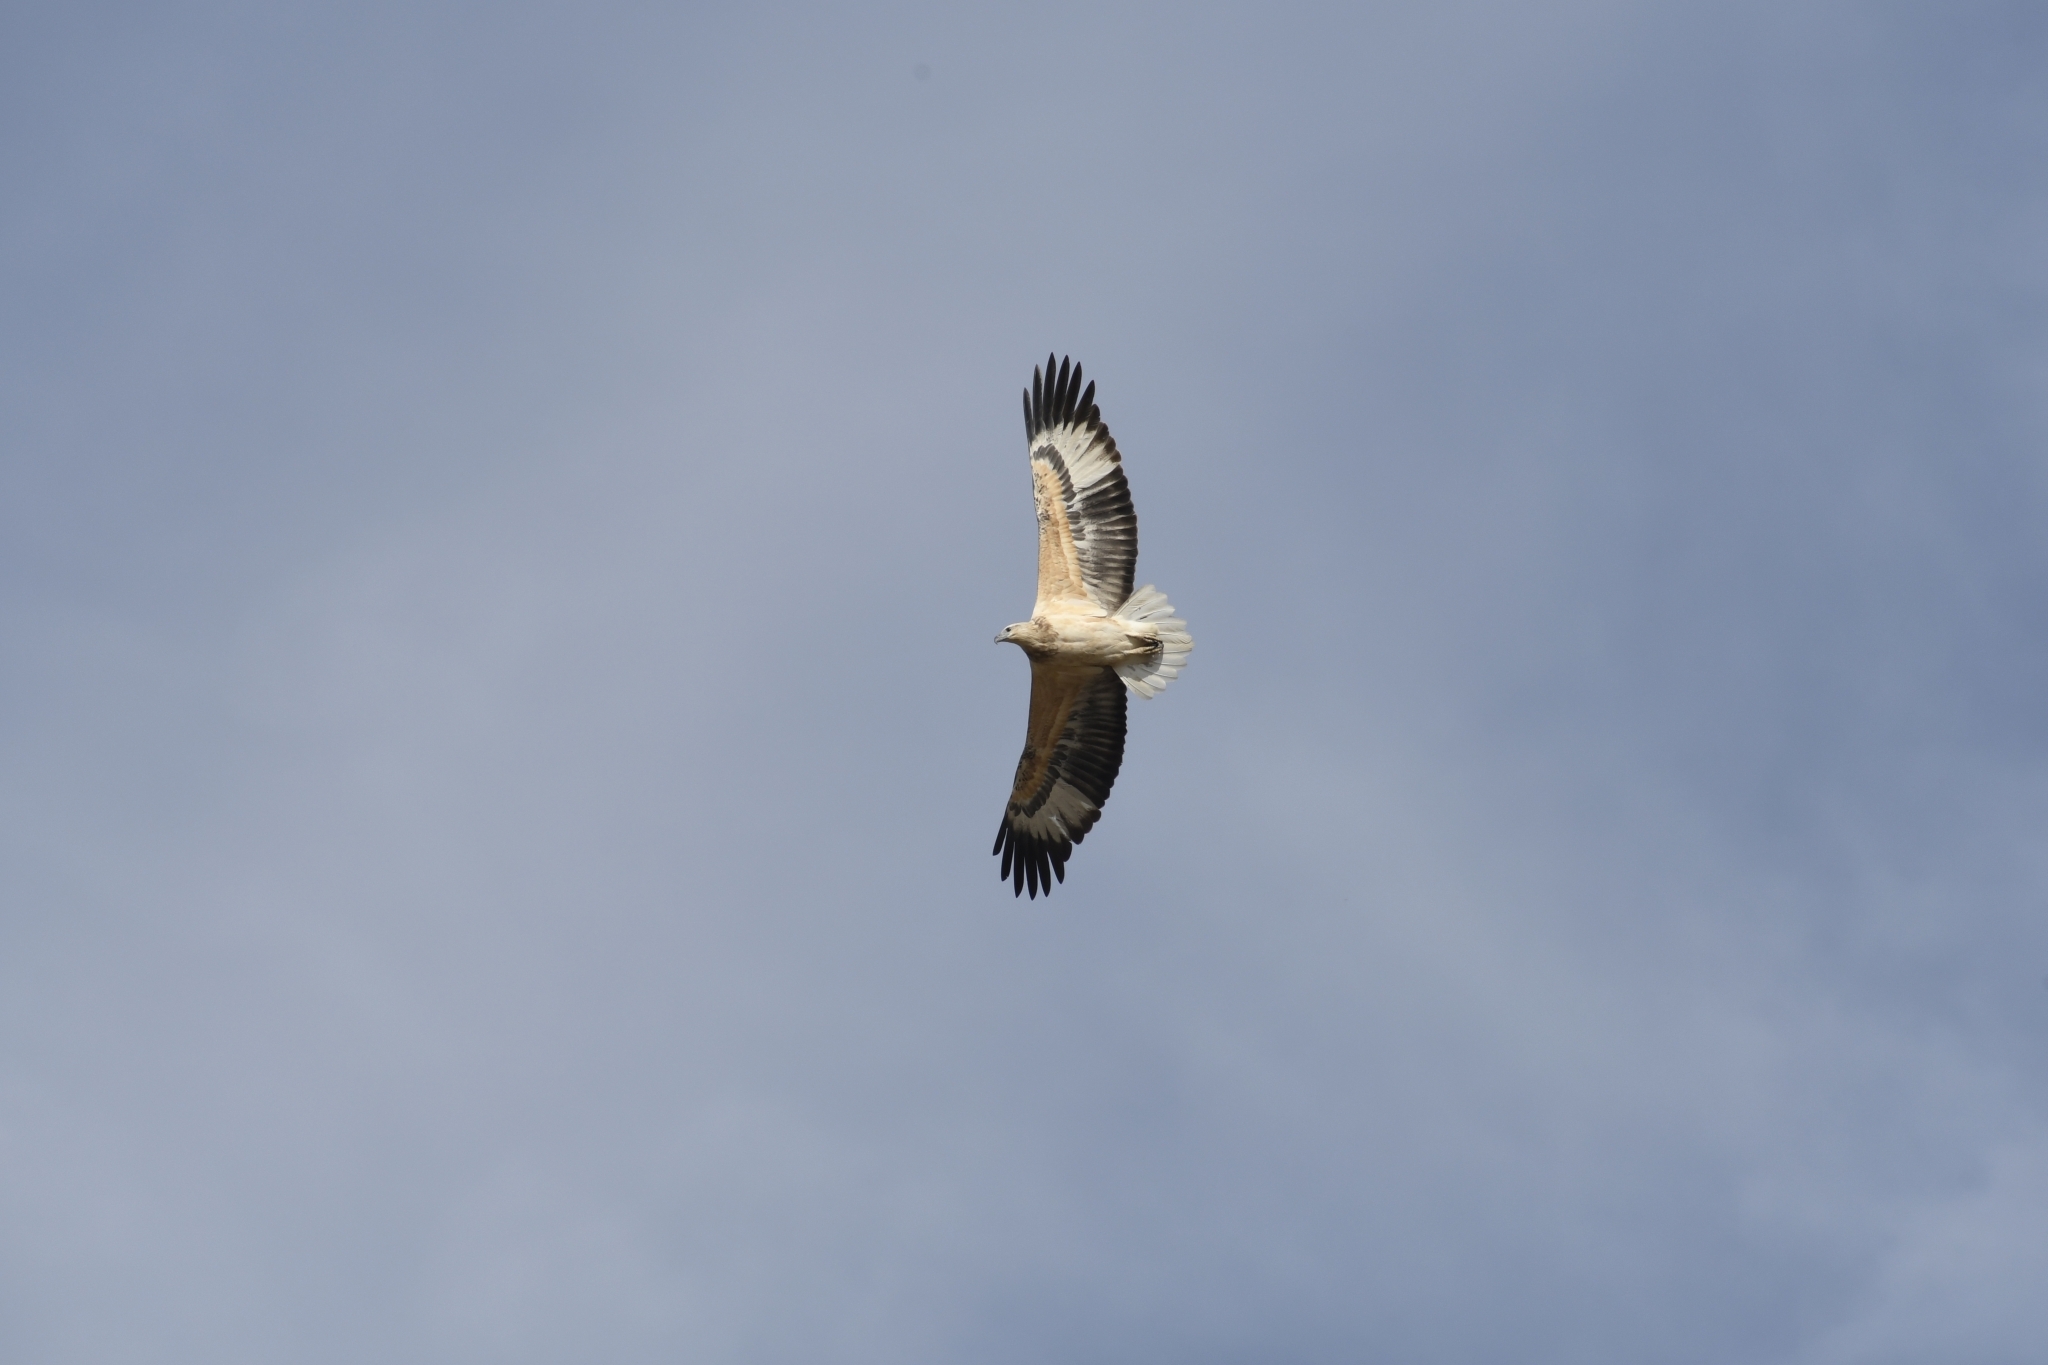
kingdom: Animalia
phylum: Chordata
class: Aves
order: Accipitriformes
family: Accipitridae
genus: Haliaeetus
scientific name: Haliaeetus leucogaster
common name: White-bellied sea eagle
